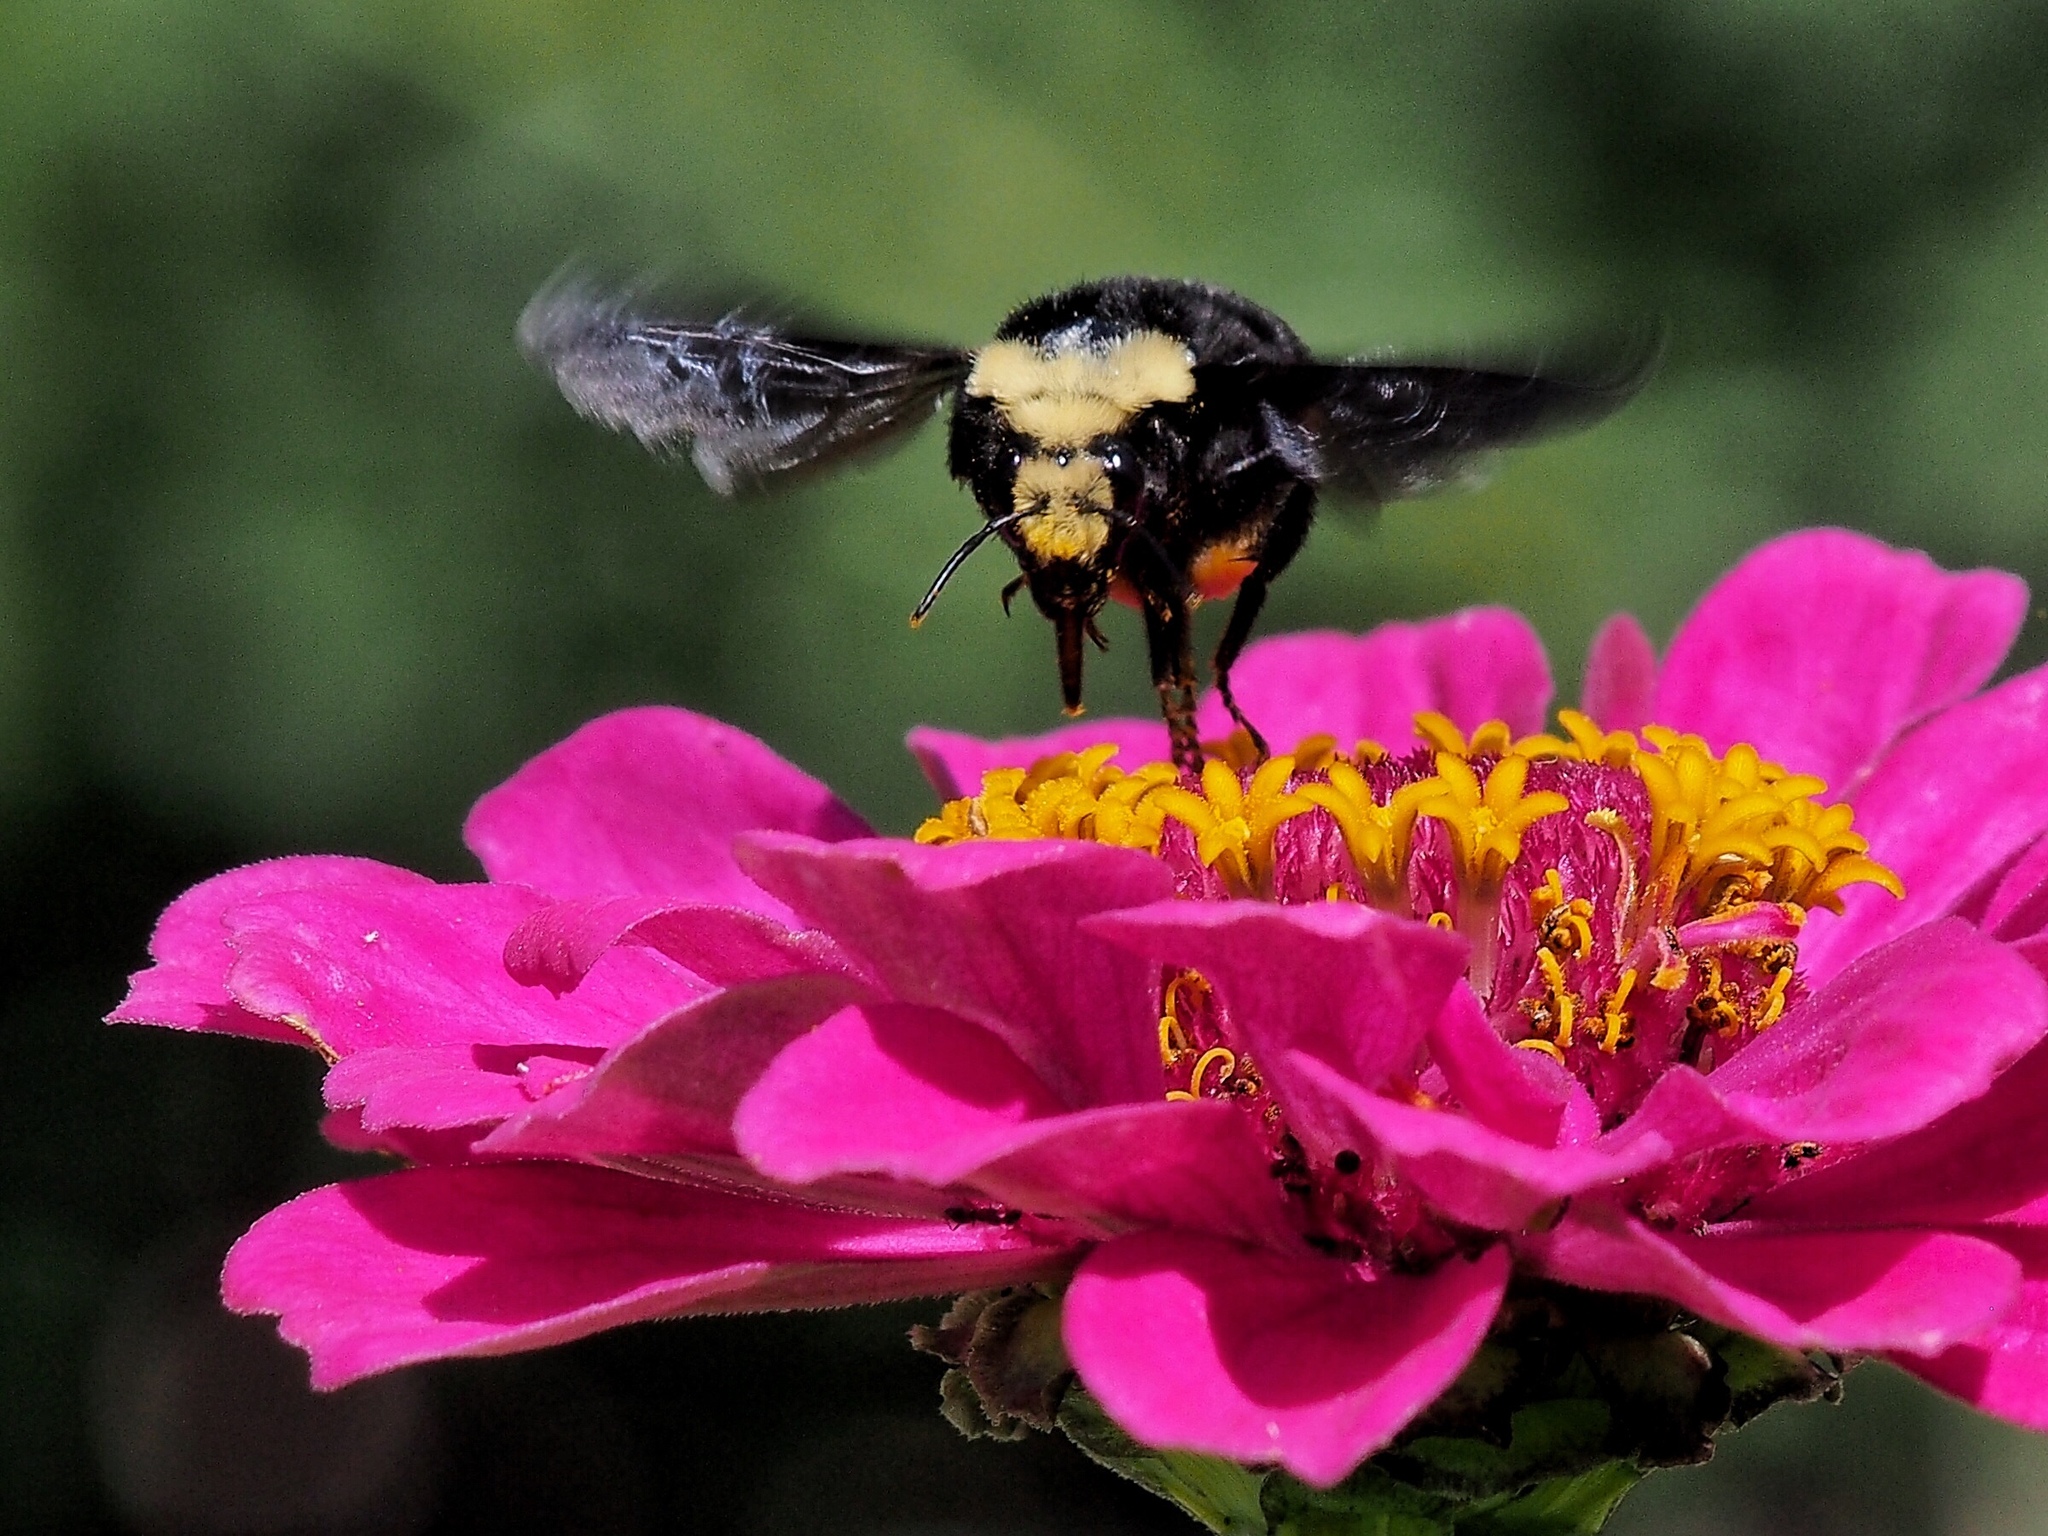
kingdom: Animalia
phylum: Arthropoda
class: Insecta
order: Hymenoptera
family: Apidae
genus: Bombus
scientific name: Bombus vosnesenskii
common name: Vosnesensky bumble bee
